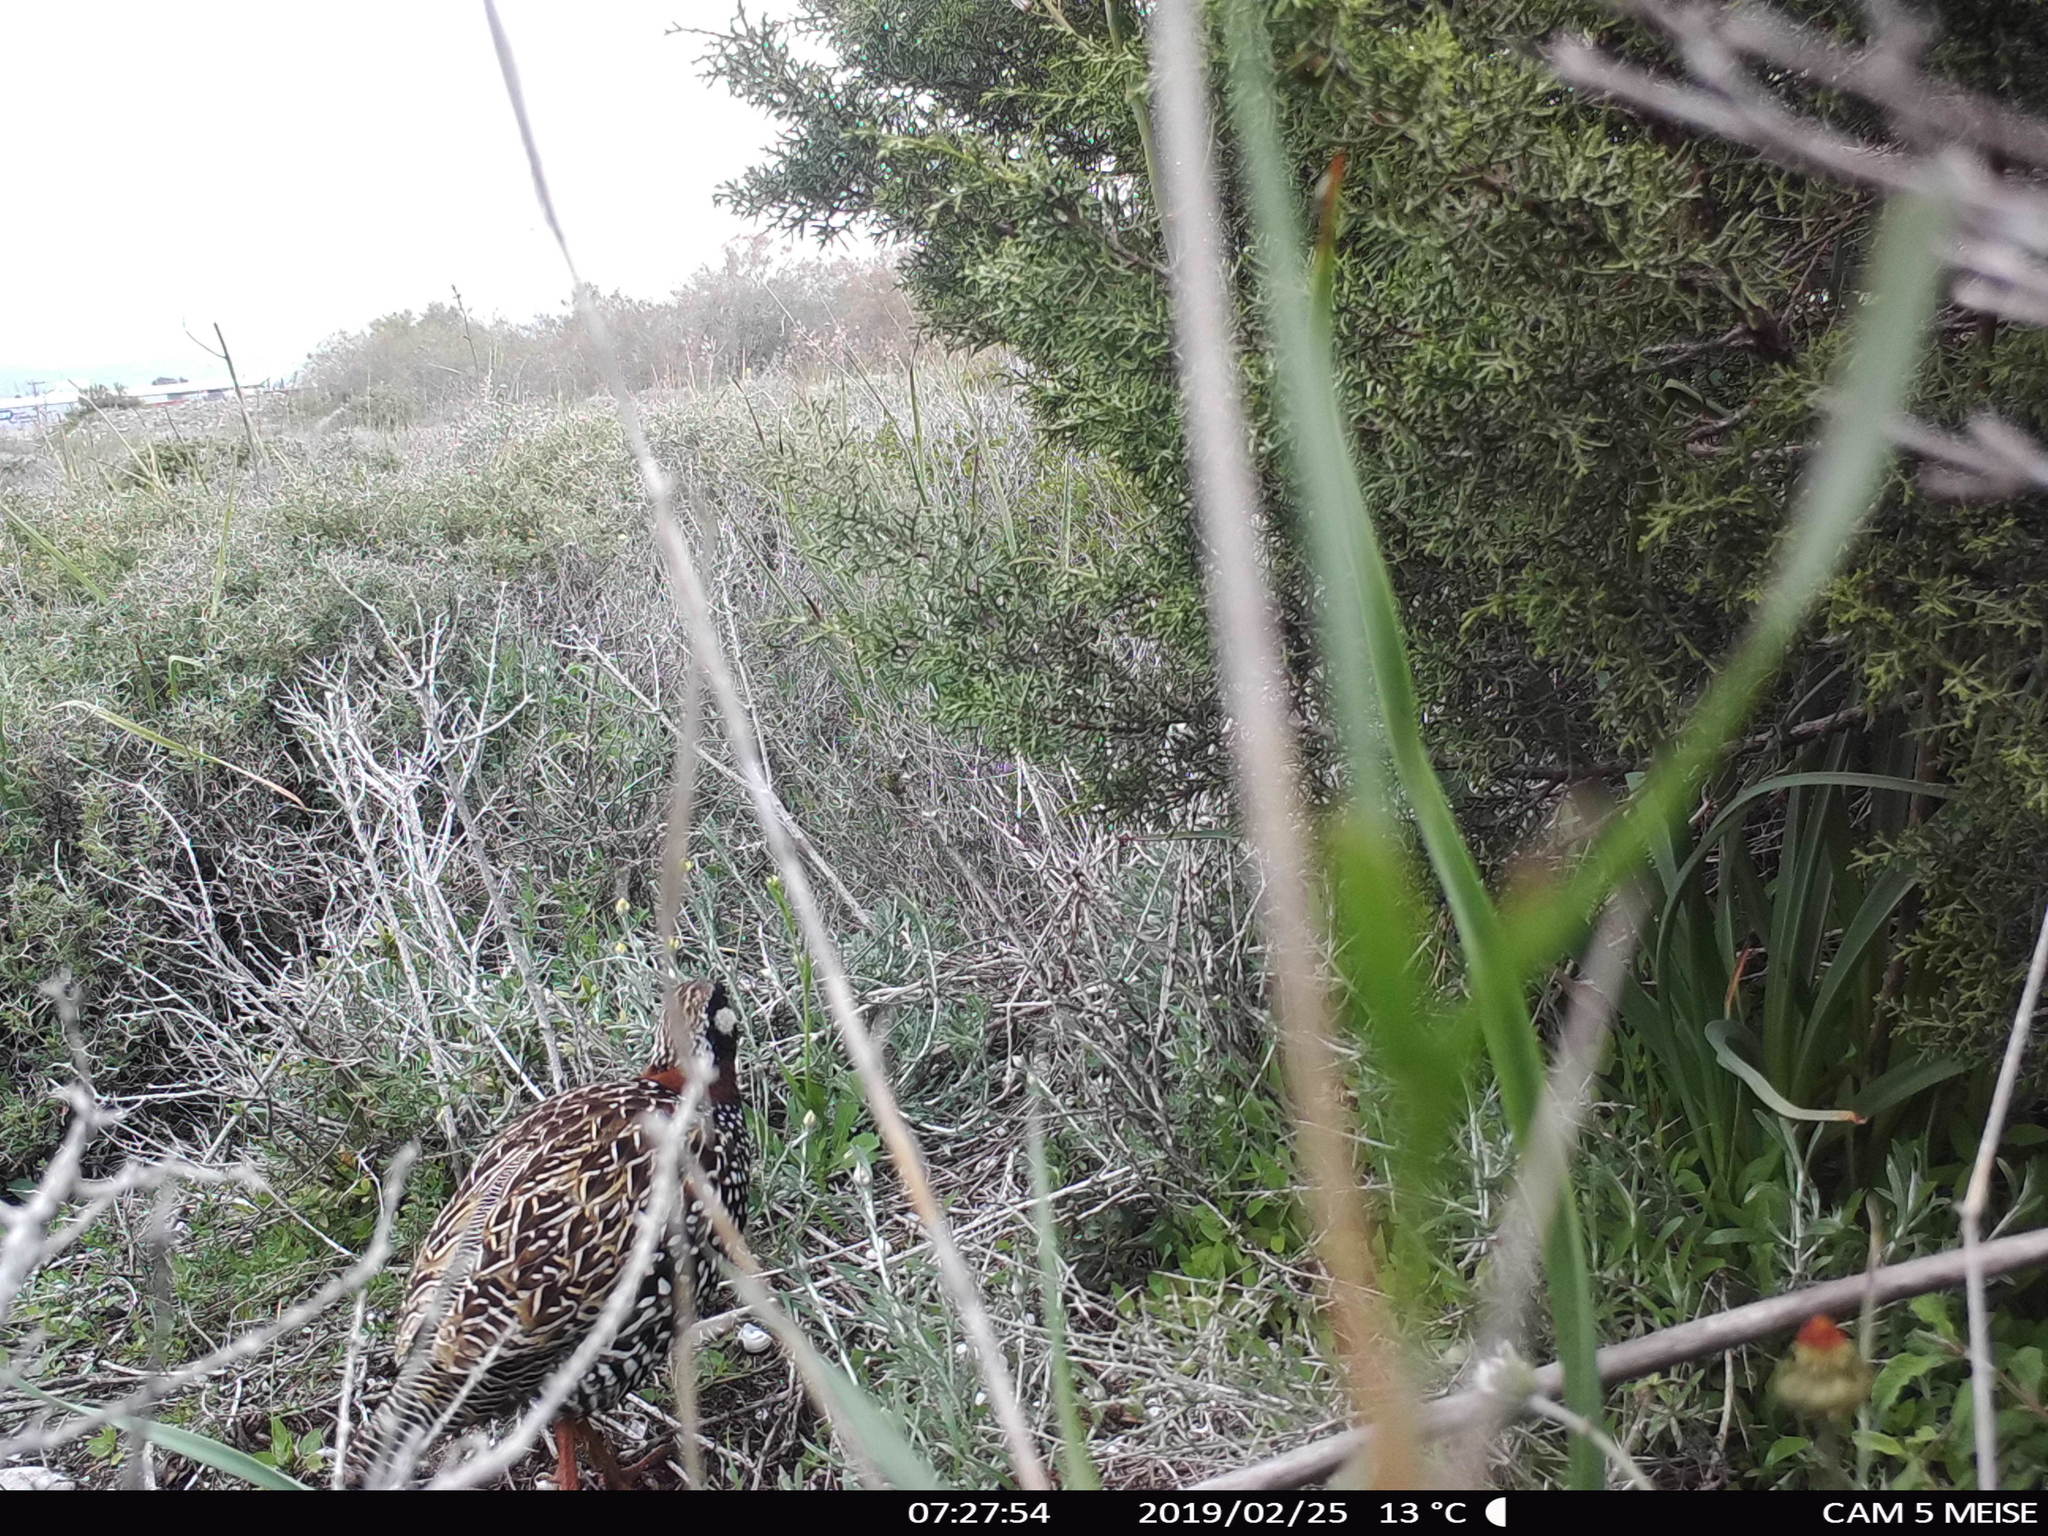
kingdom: Animalia
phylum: Chordata
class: Aves
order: Galliformes
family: Phasianidae
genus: Francolinus
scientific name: Francolinus francolinus
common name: Black francolin
